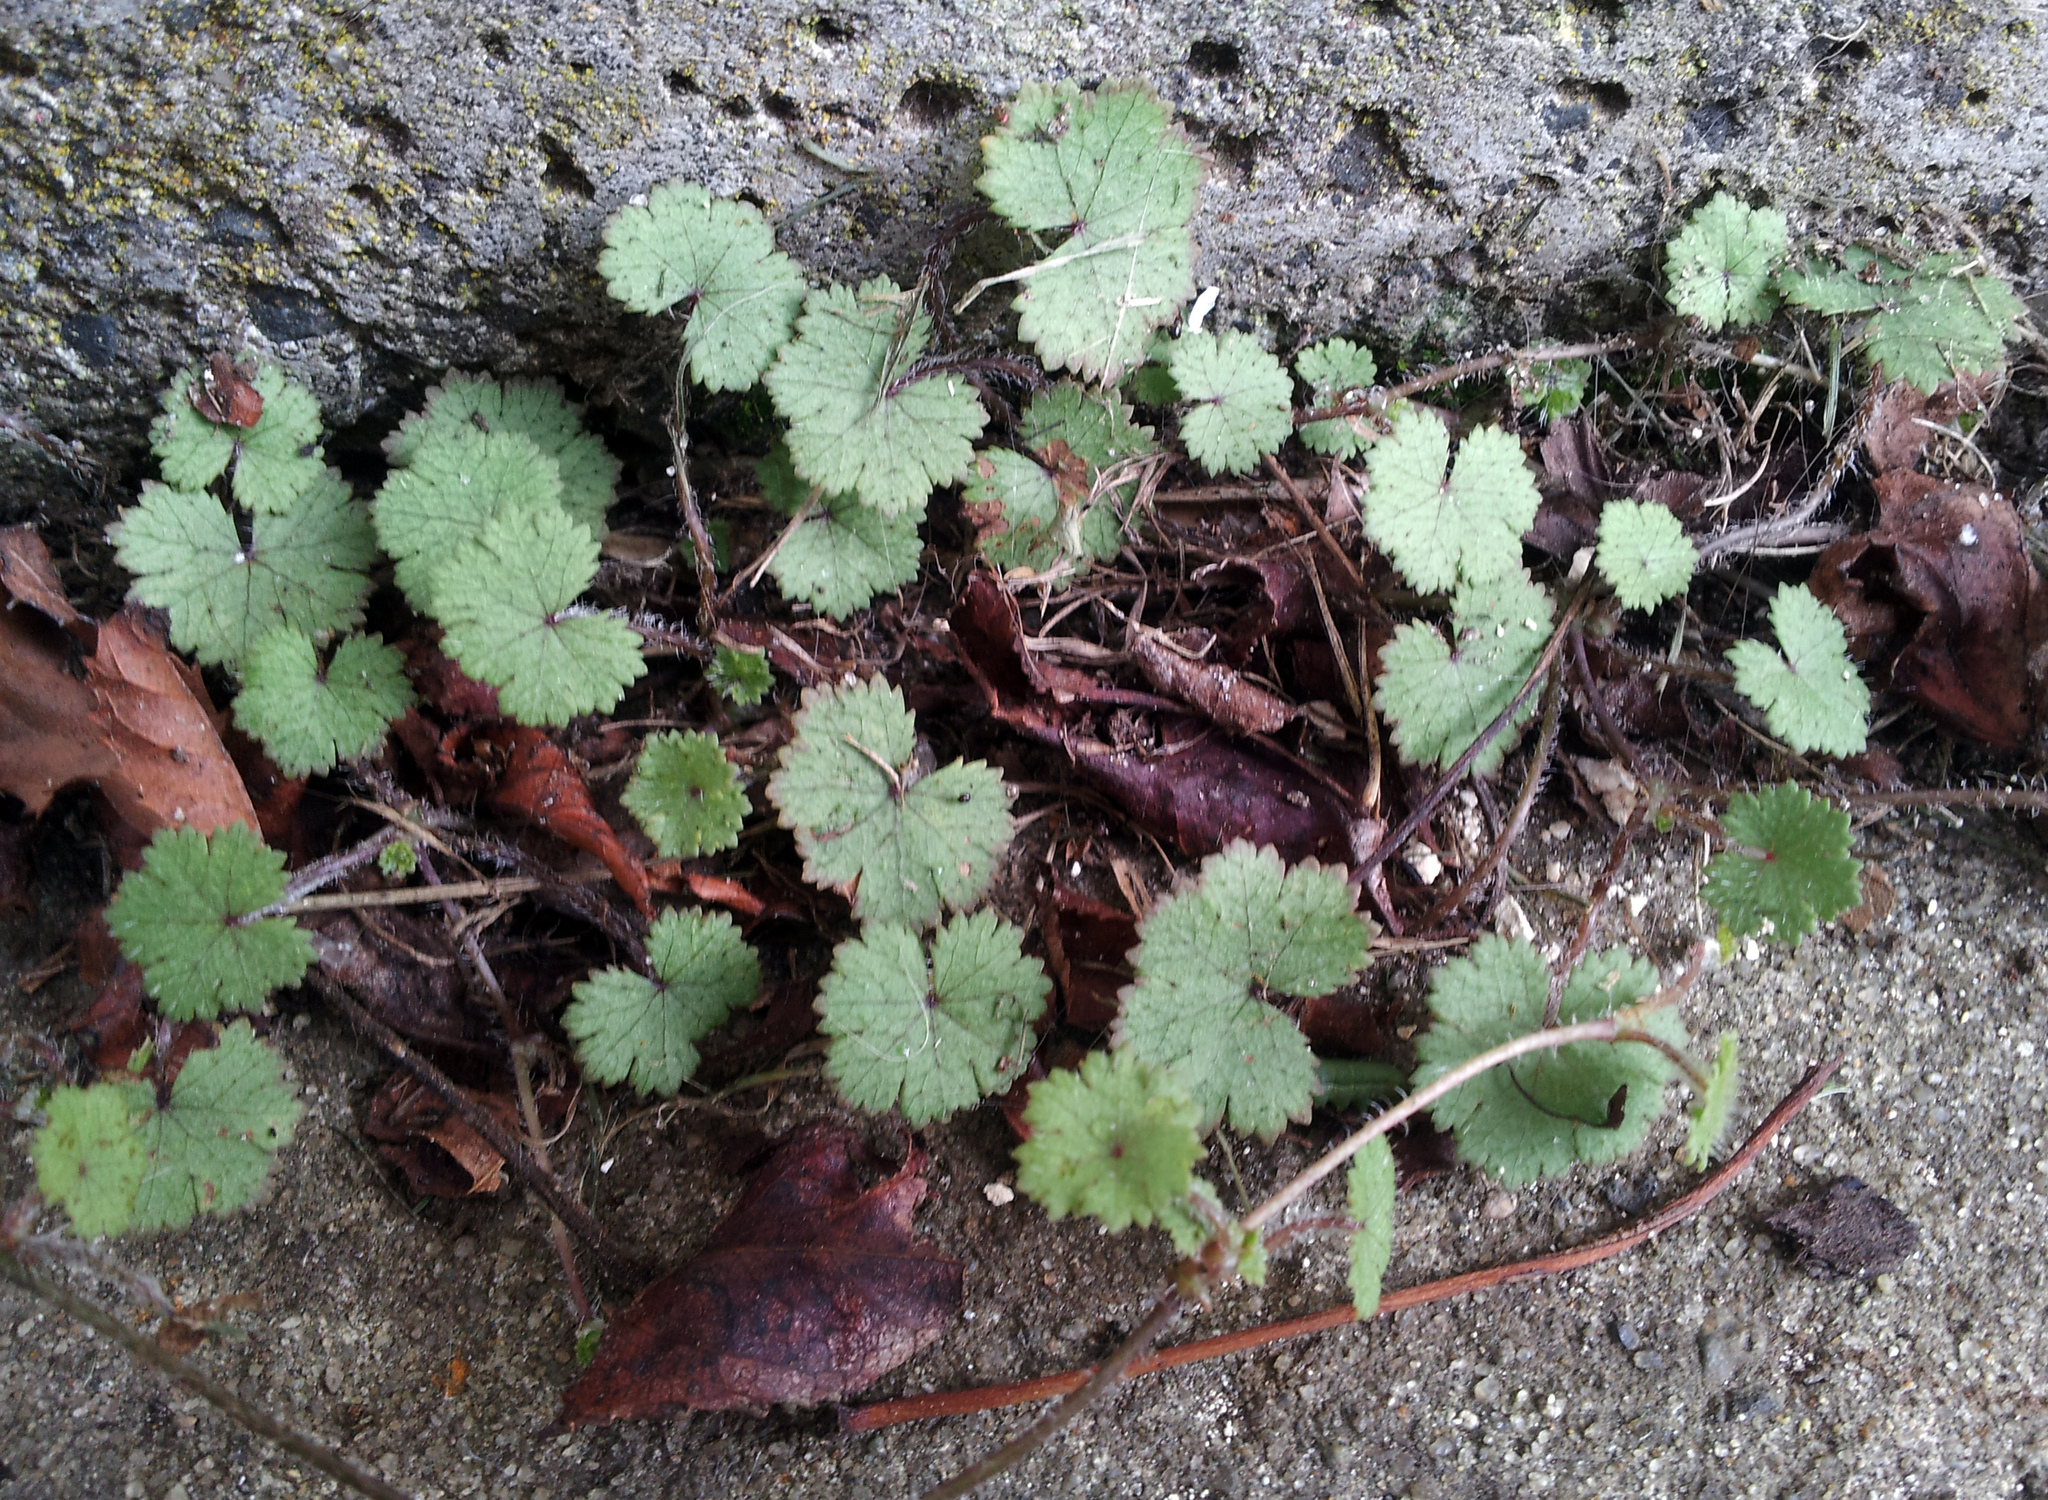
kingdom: Plantae
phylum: Tracheophyta
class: Magnoliopsida
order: Apiales
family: Araliaceae
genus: Hydrocotyle
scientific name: Hydrocotyle moschata
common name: Hairy pennywort
